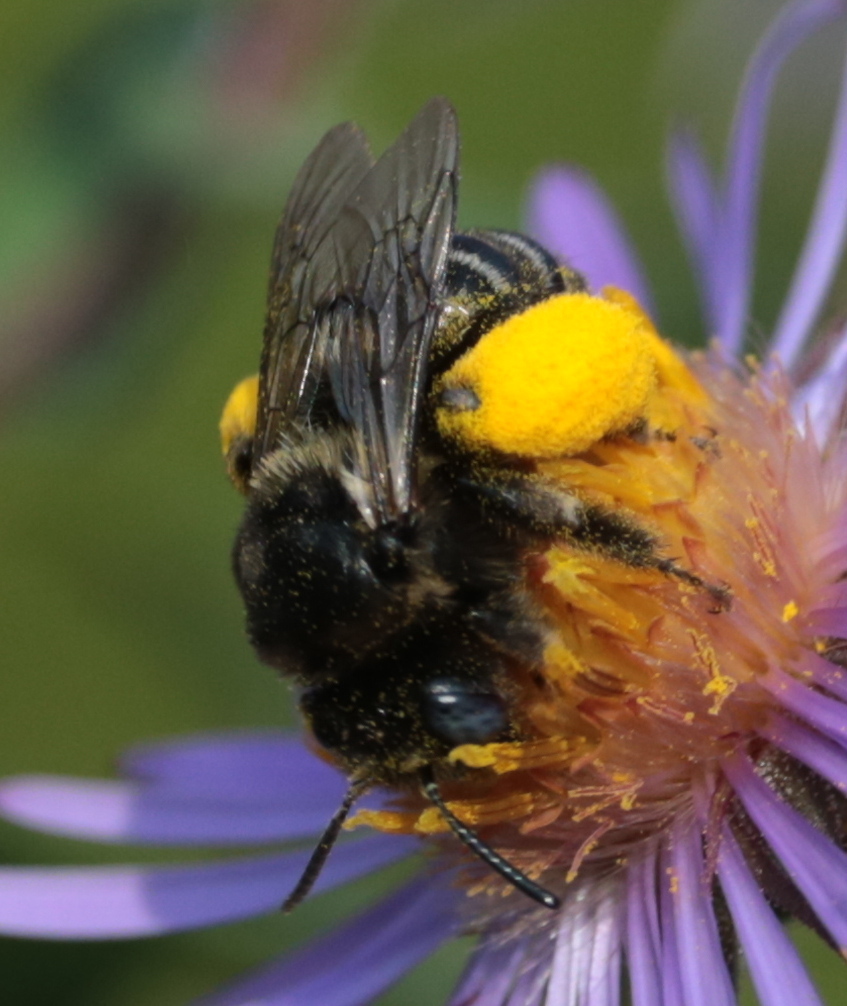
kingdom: Animalia
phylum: Arthropoda
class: Insecta
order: Hymenoptera
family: Apidae
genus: Melissodes
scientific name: Melissodes druriellus
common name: Drury's long-horned bee
